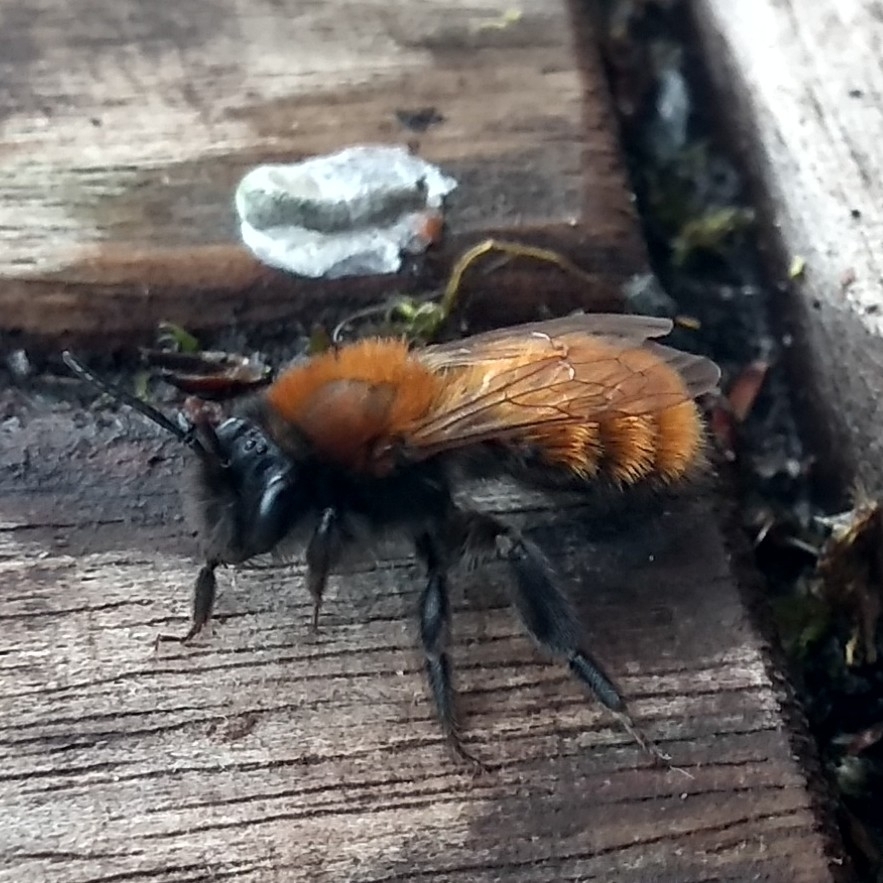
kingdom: Animalia
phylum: Arthropoda
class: Insecta
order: Hymenoptera
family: Andrenidae
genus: Andrena
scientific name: Andrena fulva
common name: Tawny mining bee
